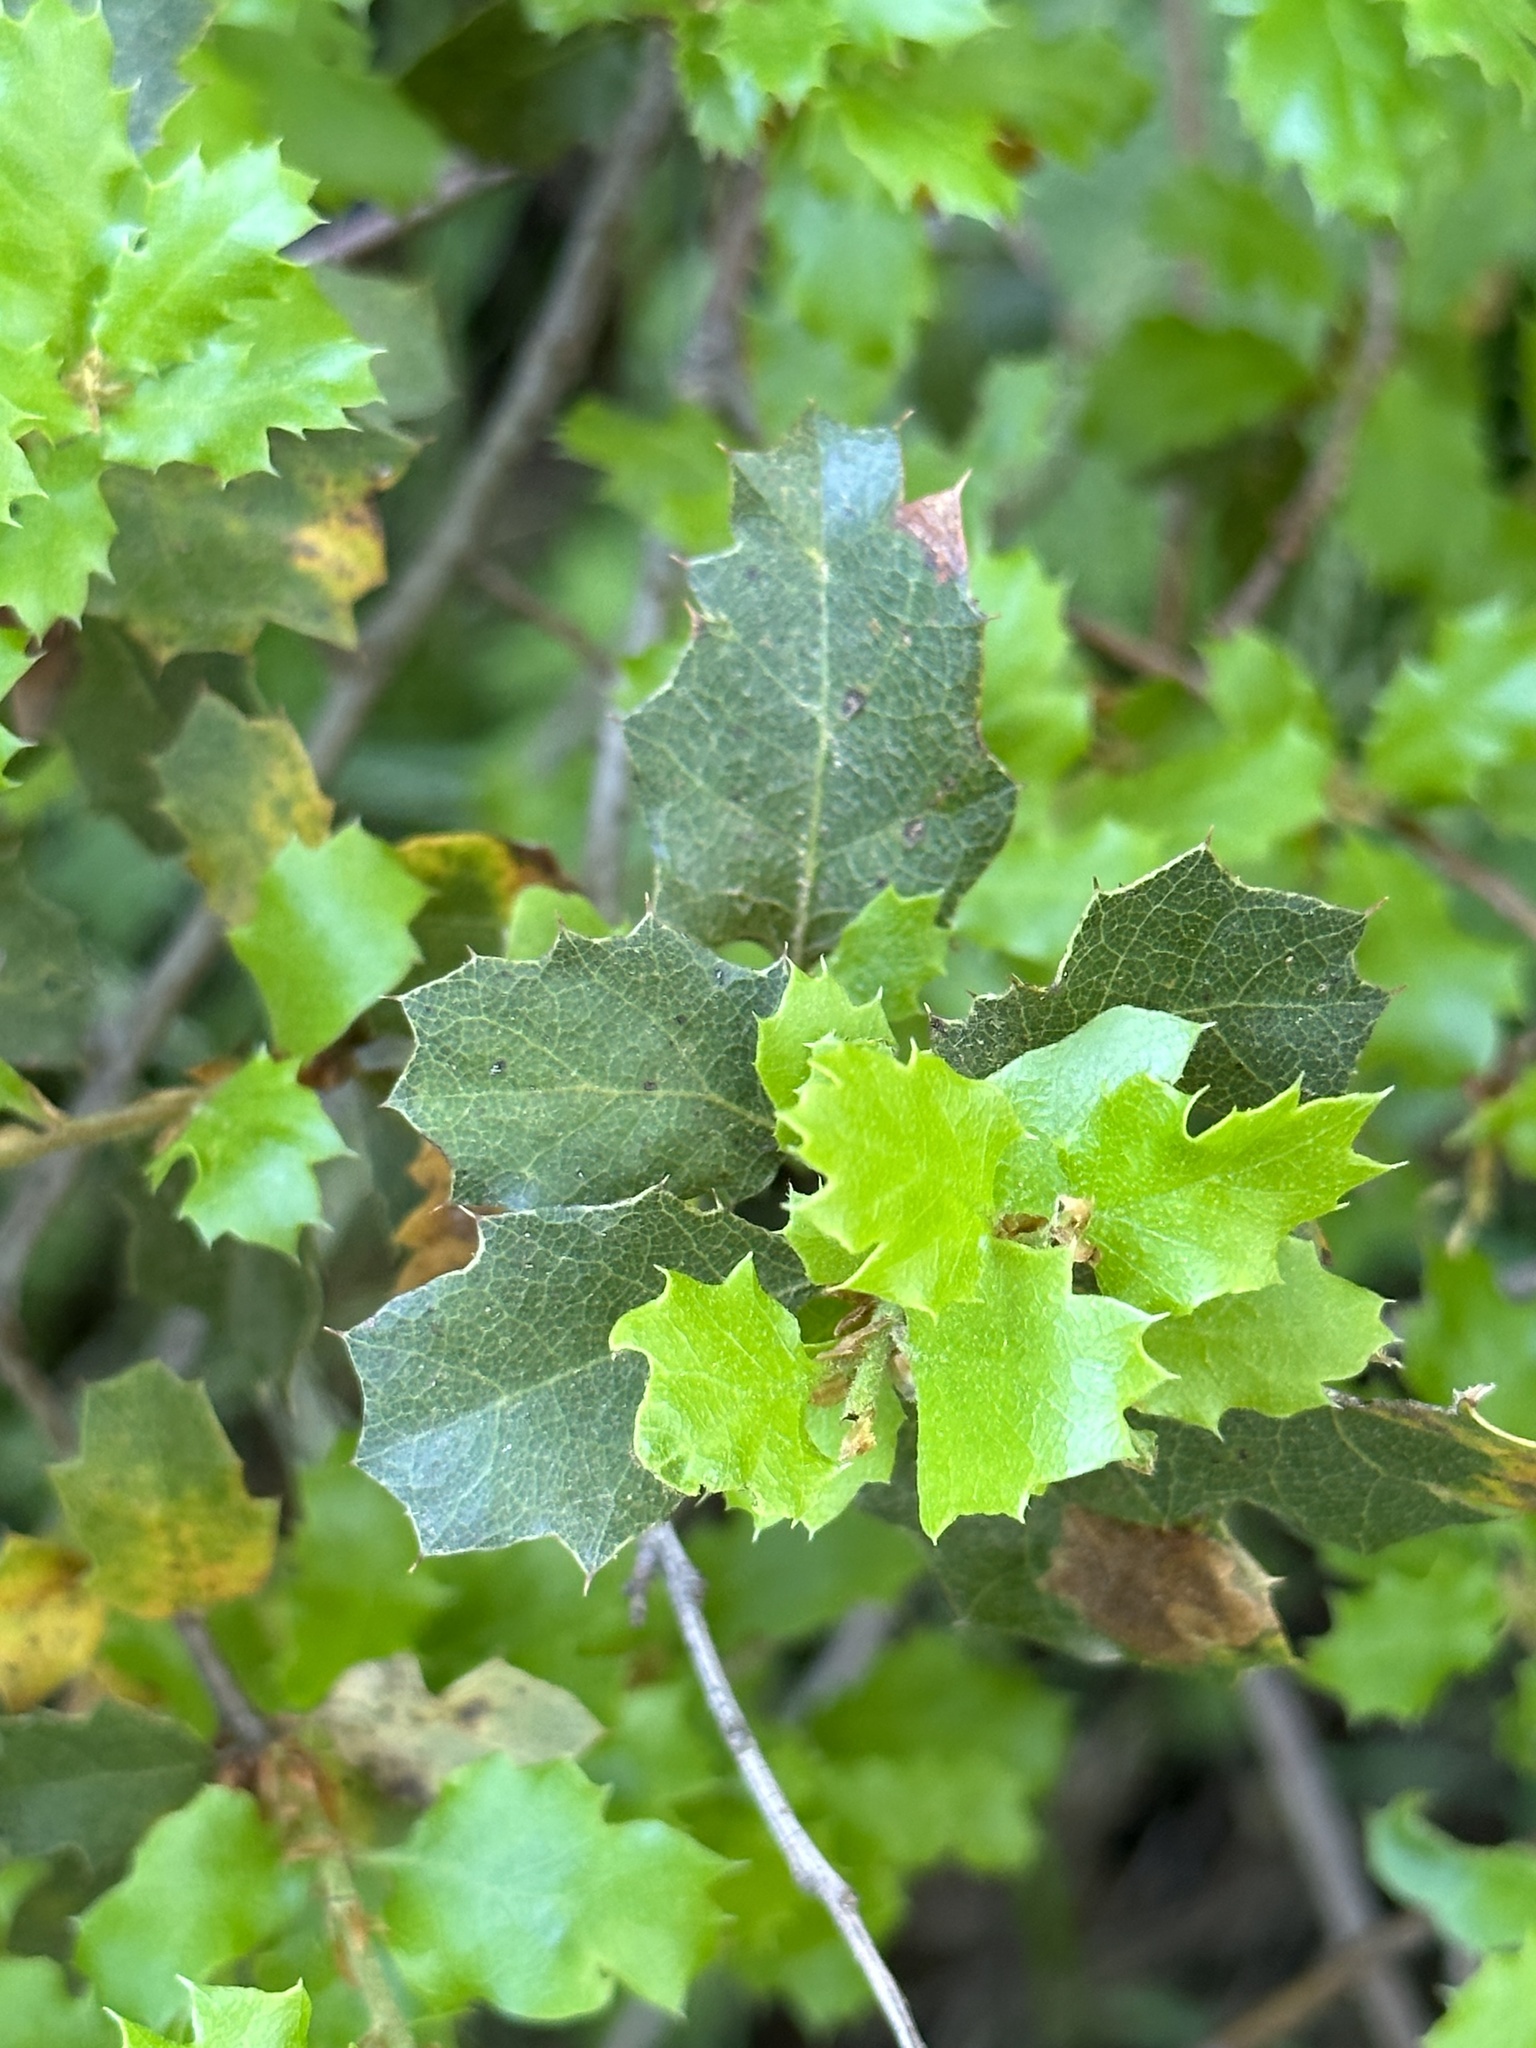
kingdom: Plantae
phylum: Tracheophyta
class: Magnoliopsida
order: Fagales
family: Fagaceae
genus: Quercus
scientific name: Quercus berberidifolia
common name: California scrub oak
